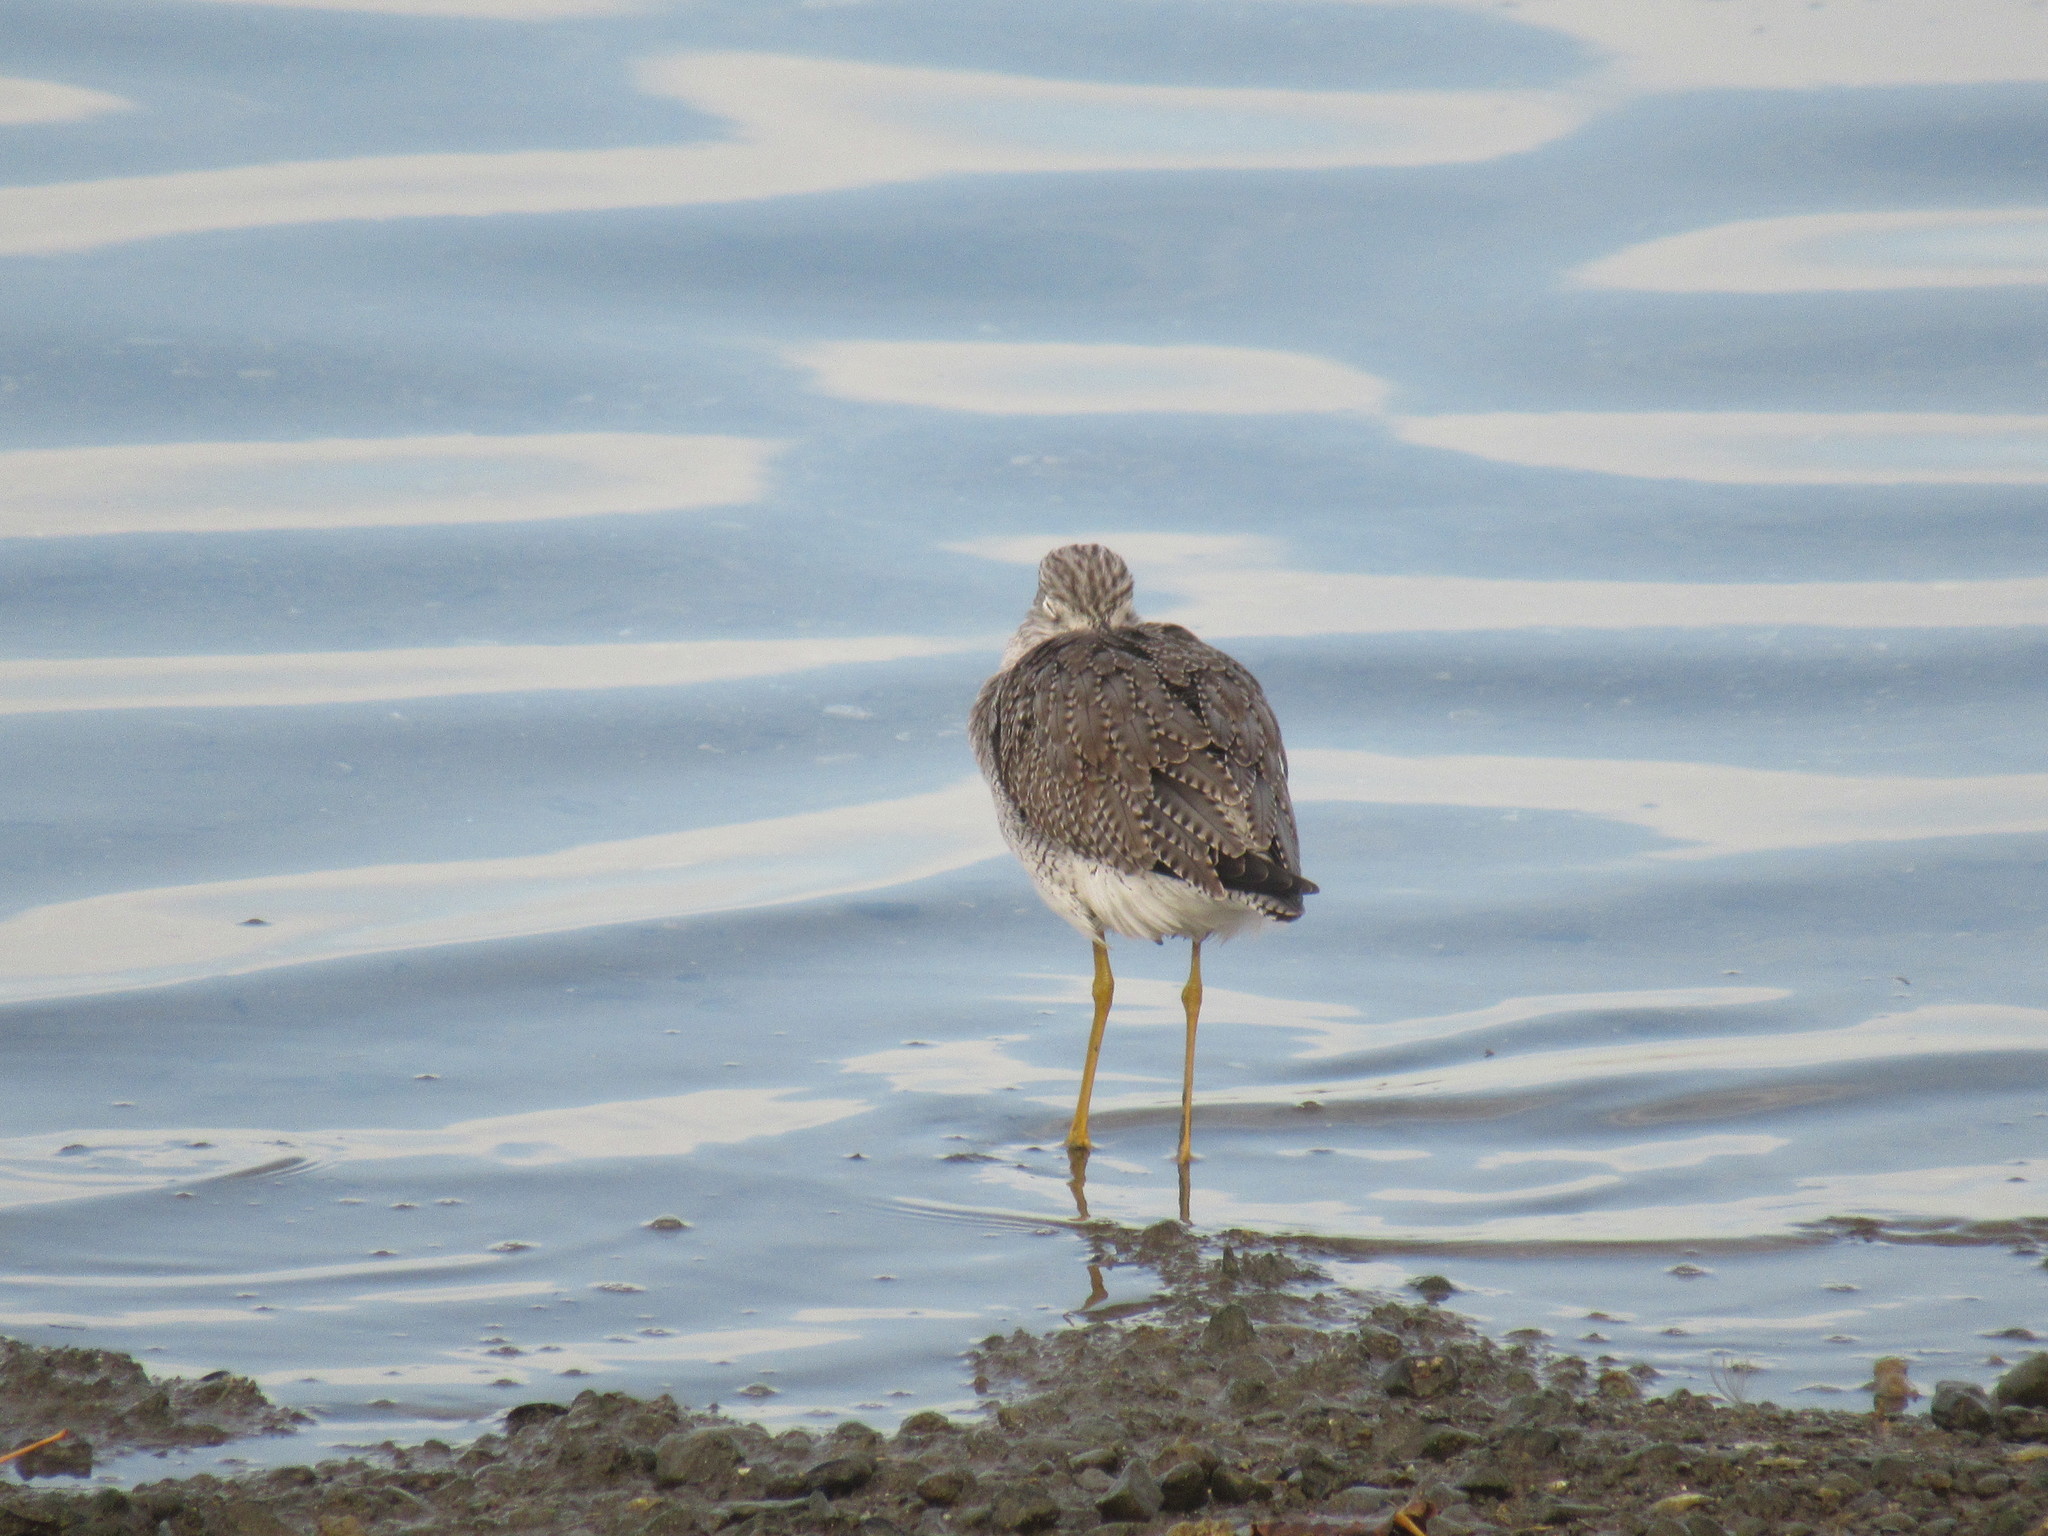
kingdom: Animalia
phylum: Chordata
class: Aves
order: Charadriiformes
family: Scolopacidae
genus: Tringa
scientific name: Tringa melanoleuca
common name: Greater yellowlegs
